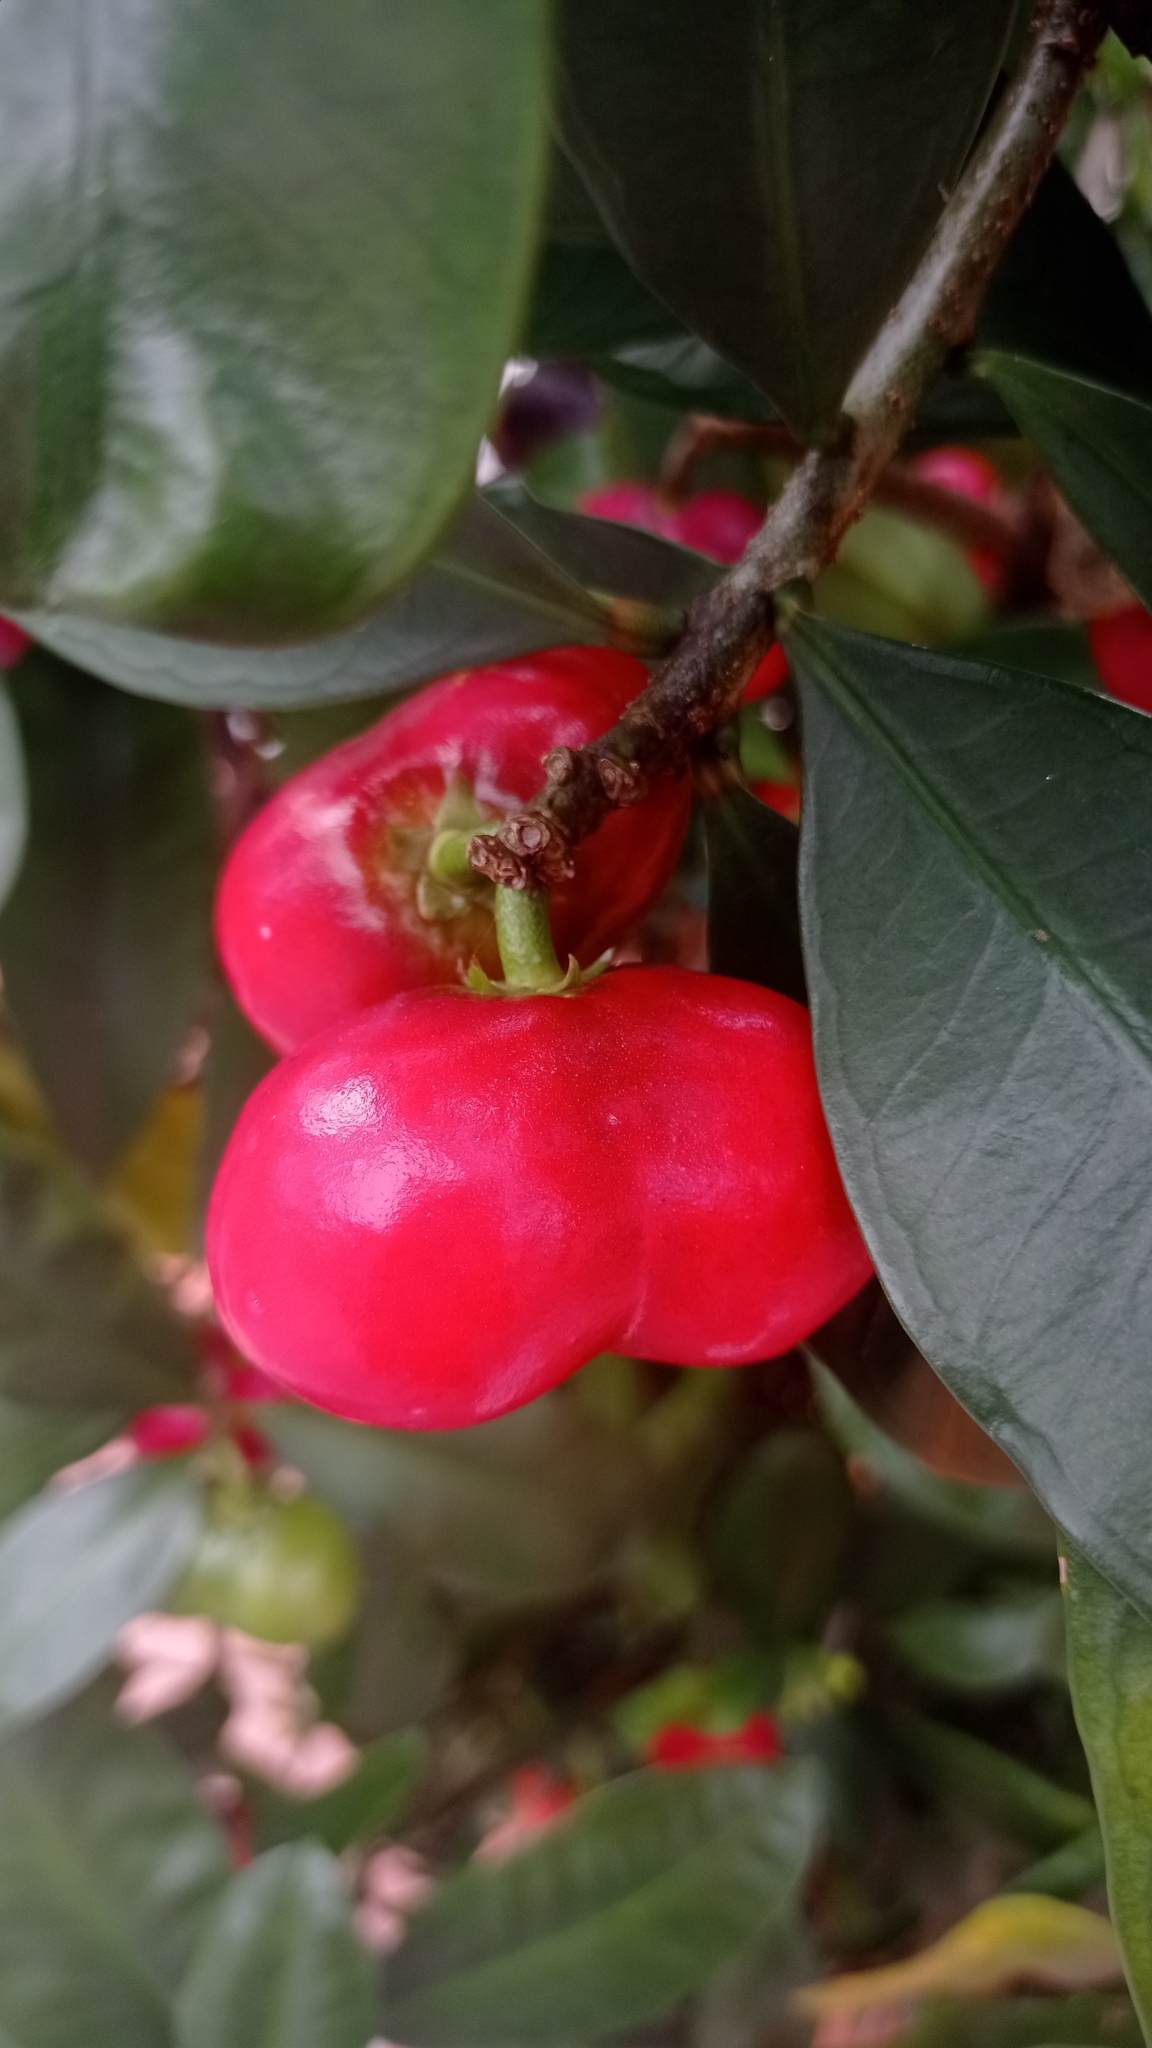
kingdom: Plantae
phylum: Tracheophyta
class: Magnoliopsida
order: Gentianales
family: Apocynaceae
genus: Thevetia
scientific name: Thevetia ahouai
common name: Broadleaf thevetia
